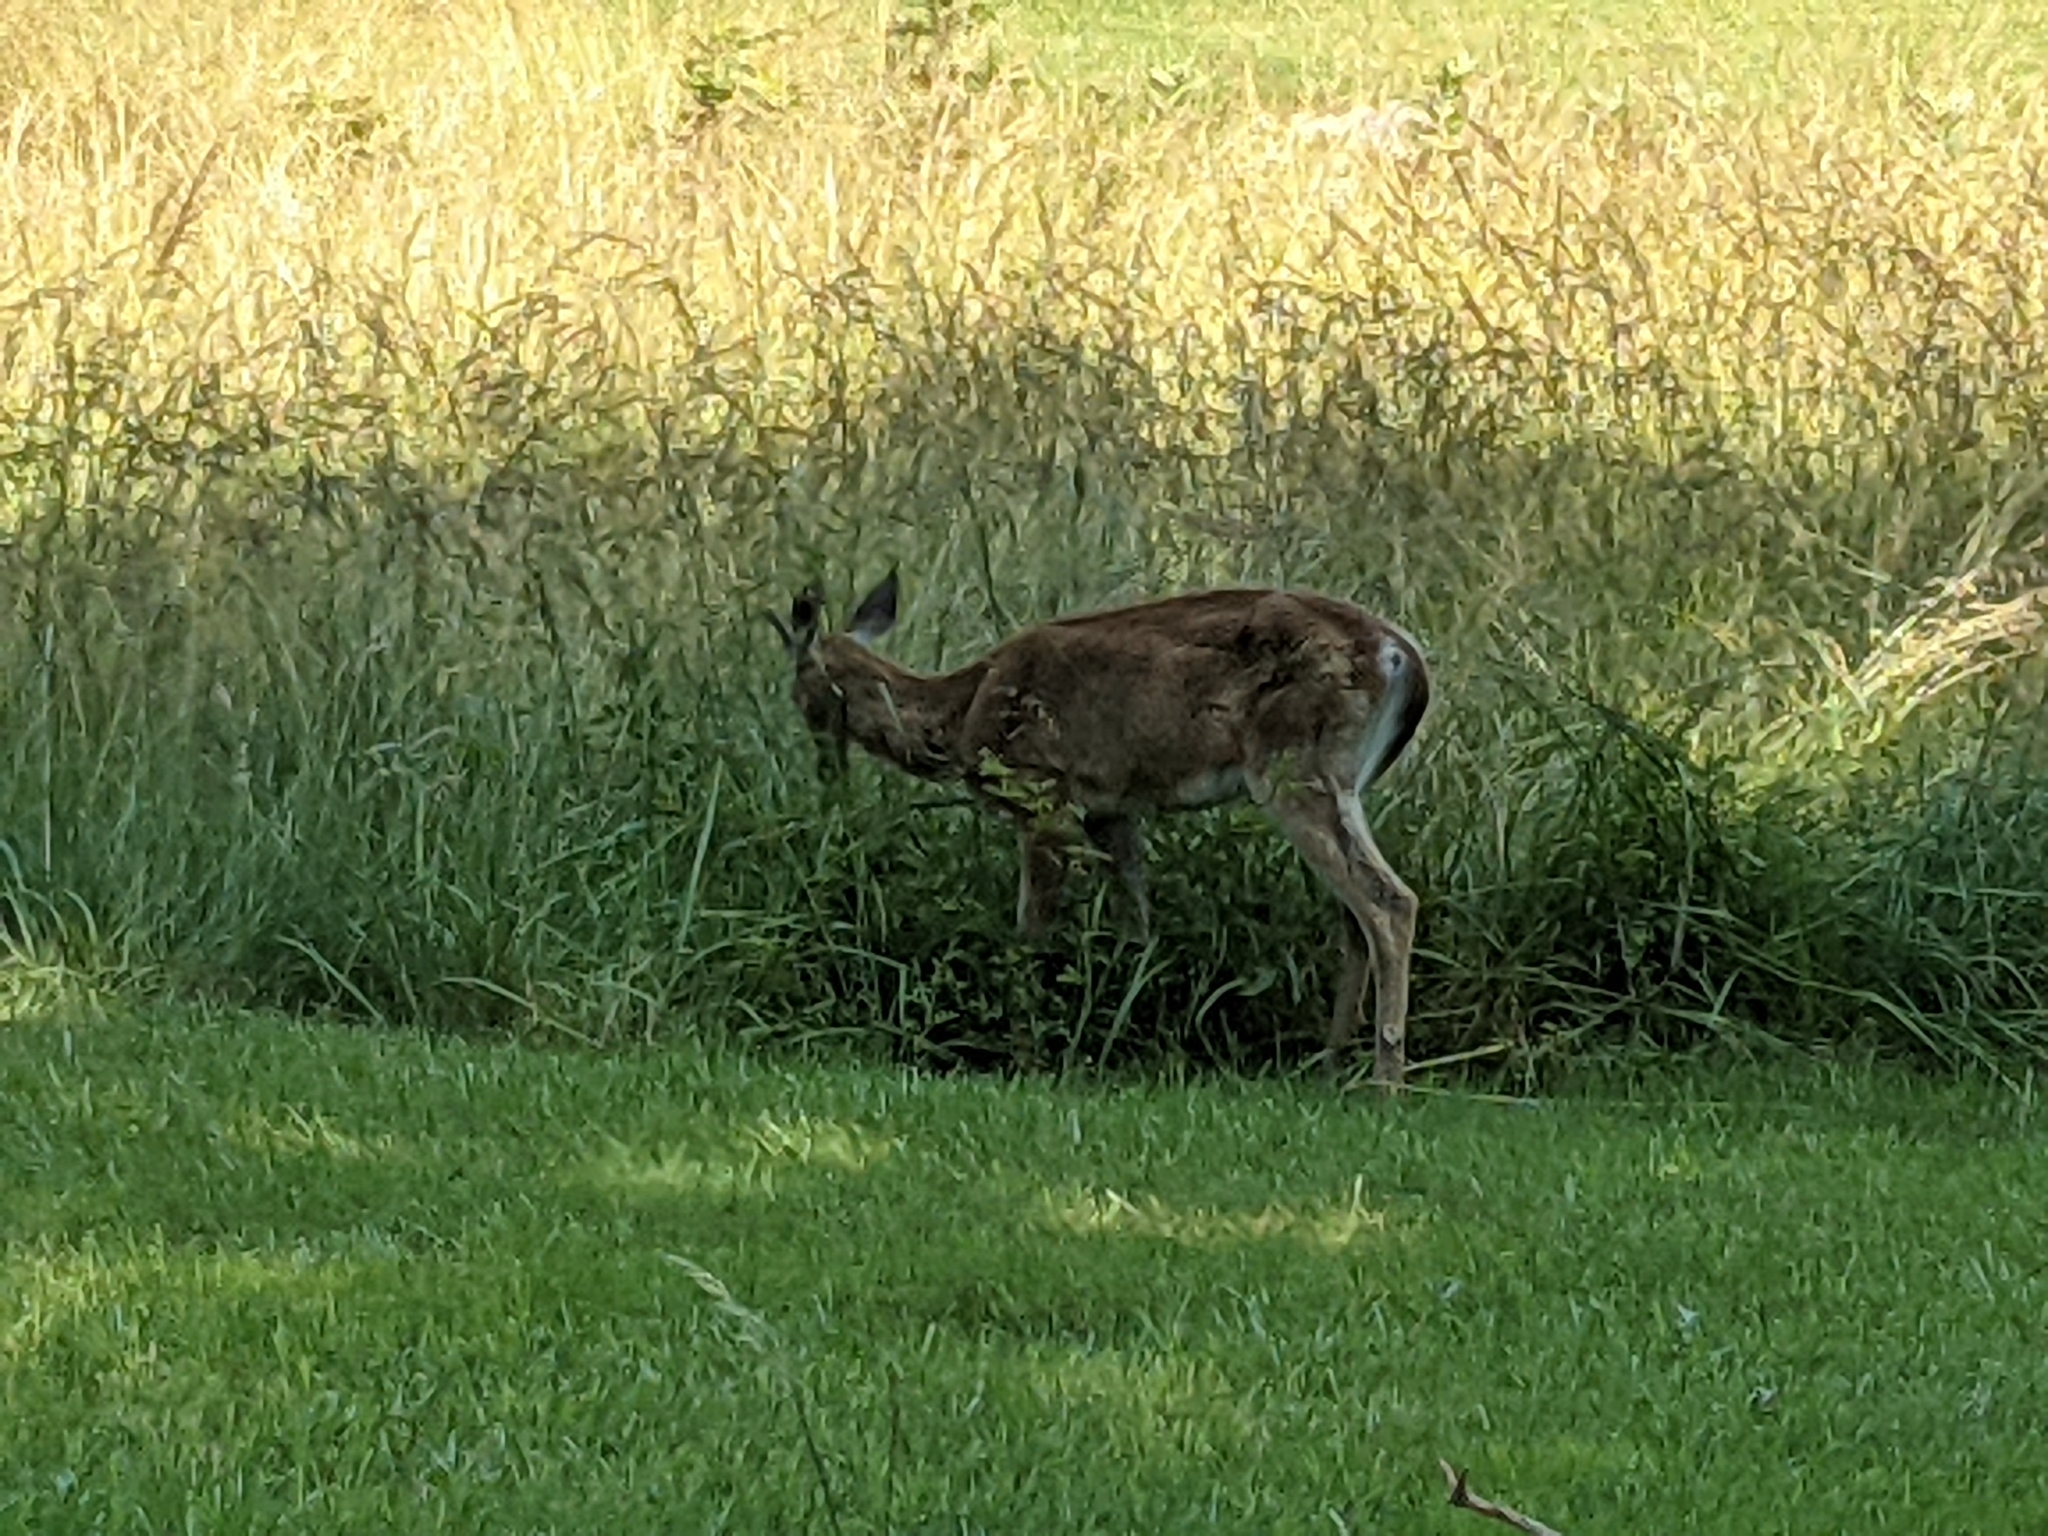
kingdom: Animalia
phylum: Chordata
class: Mammalia
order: Artiodactyla
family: Cervidae
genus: Odocoileus
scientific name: Odocoileus virginianus
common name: White-tailed deer
